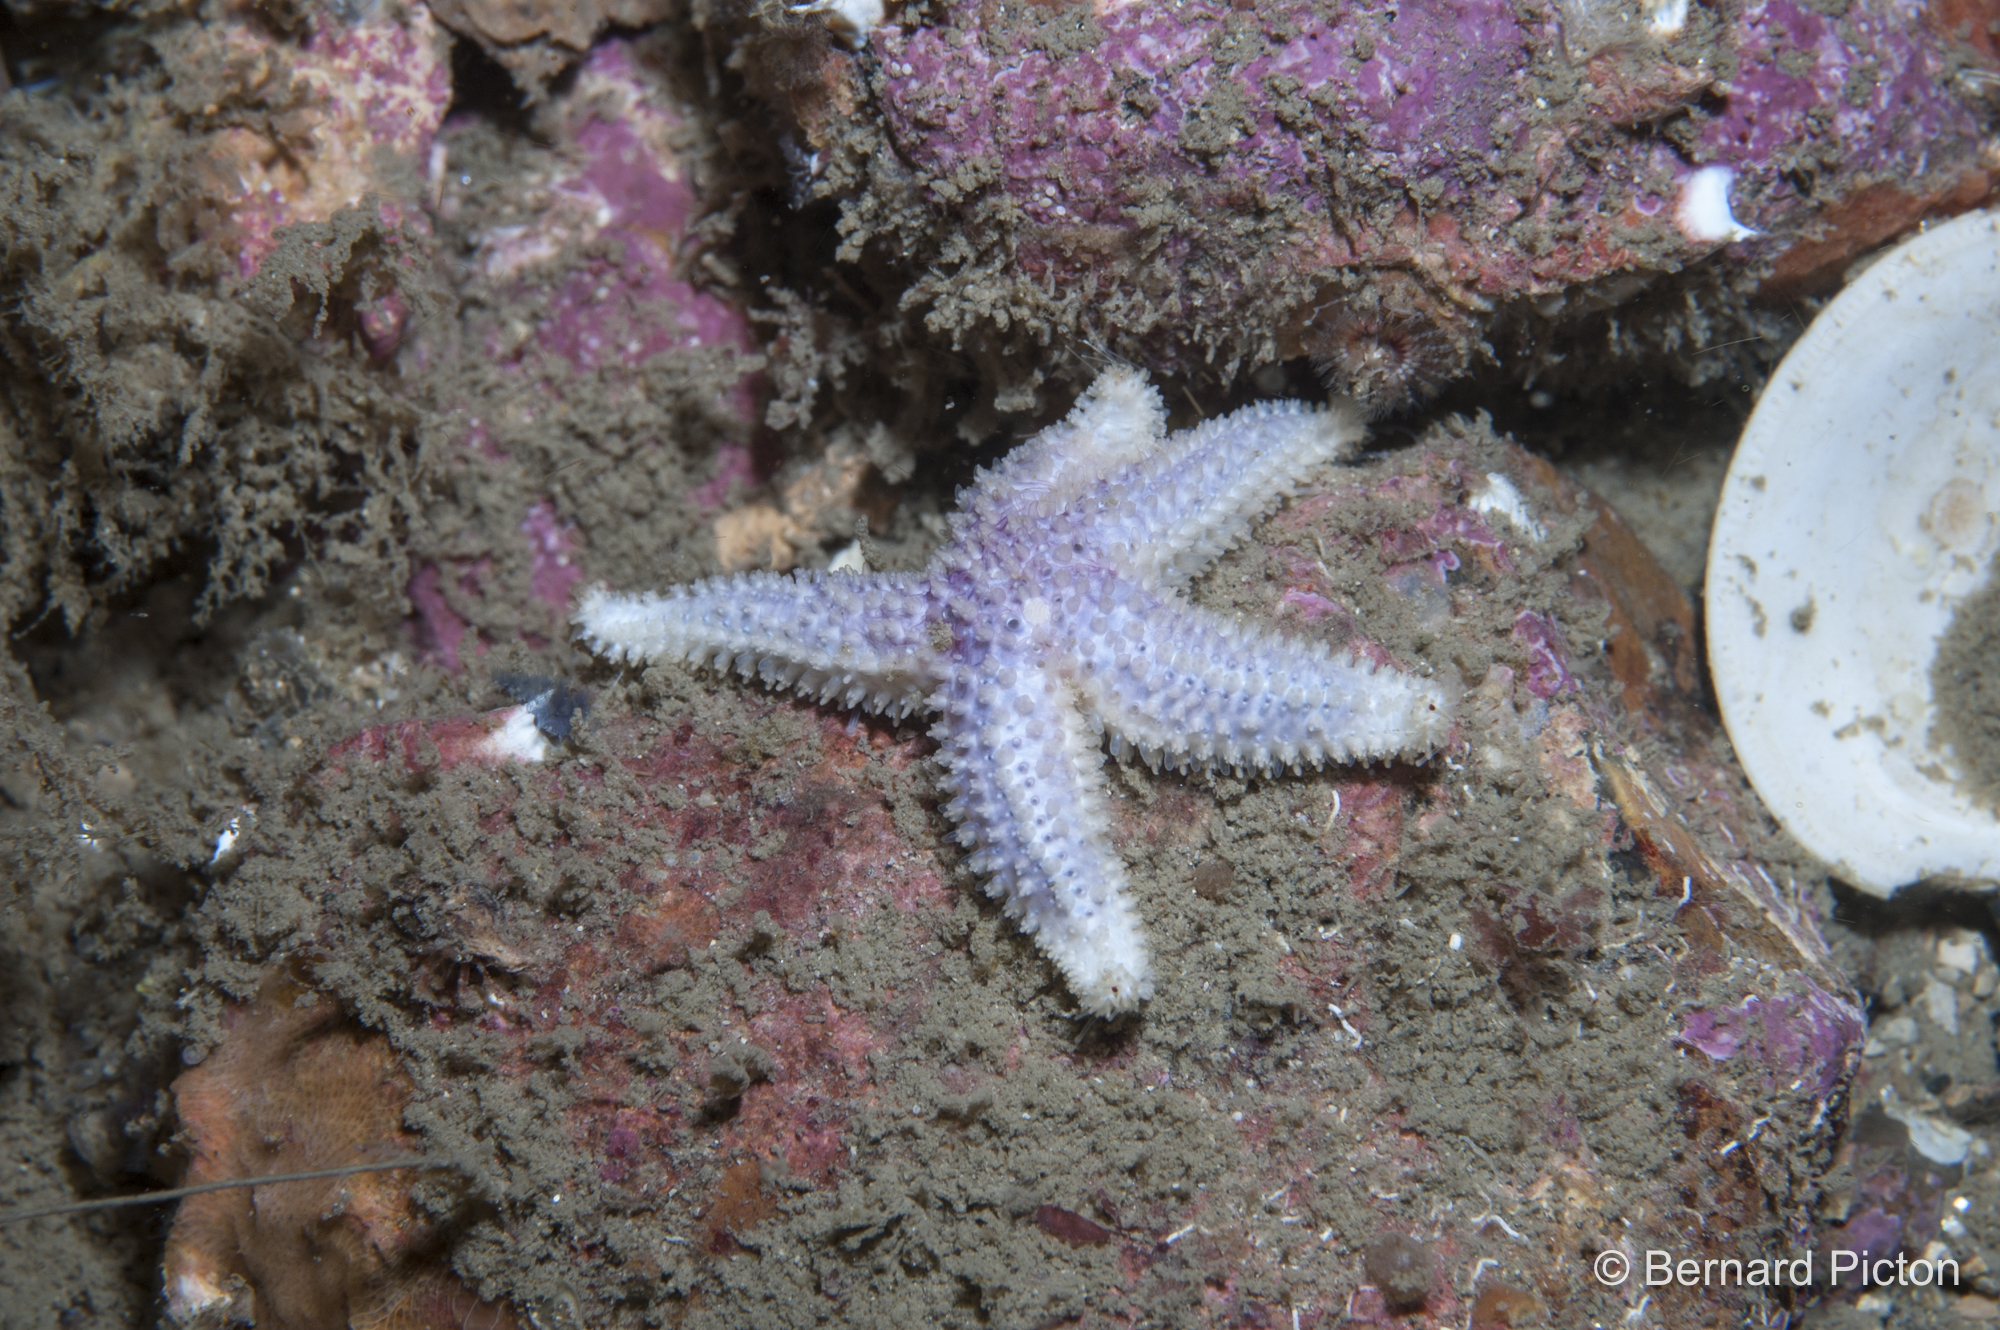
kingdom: Animalia
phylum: Echinodermata
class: Asteroidea
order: Forcipulatida
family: Asteriidae
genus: Leptasterias
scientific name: Leptasterias muelleri
